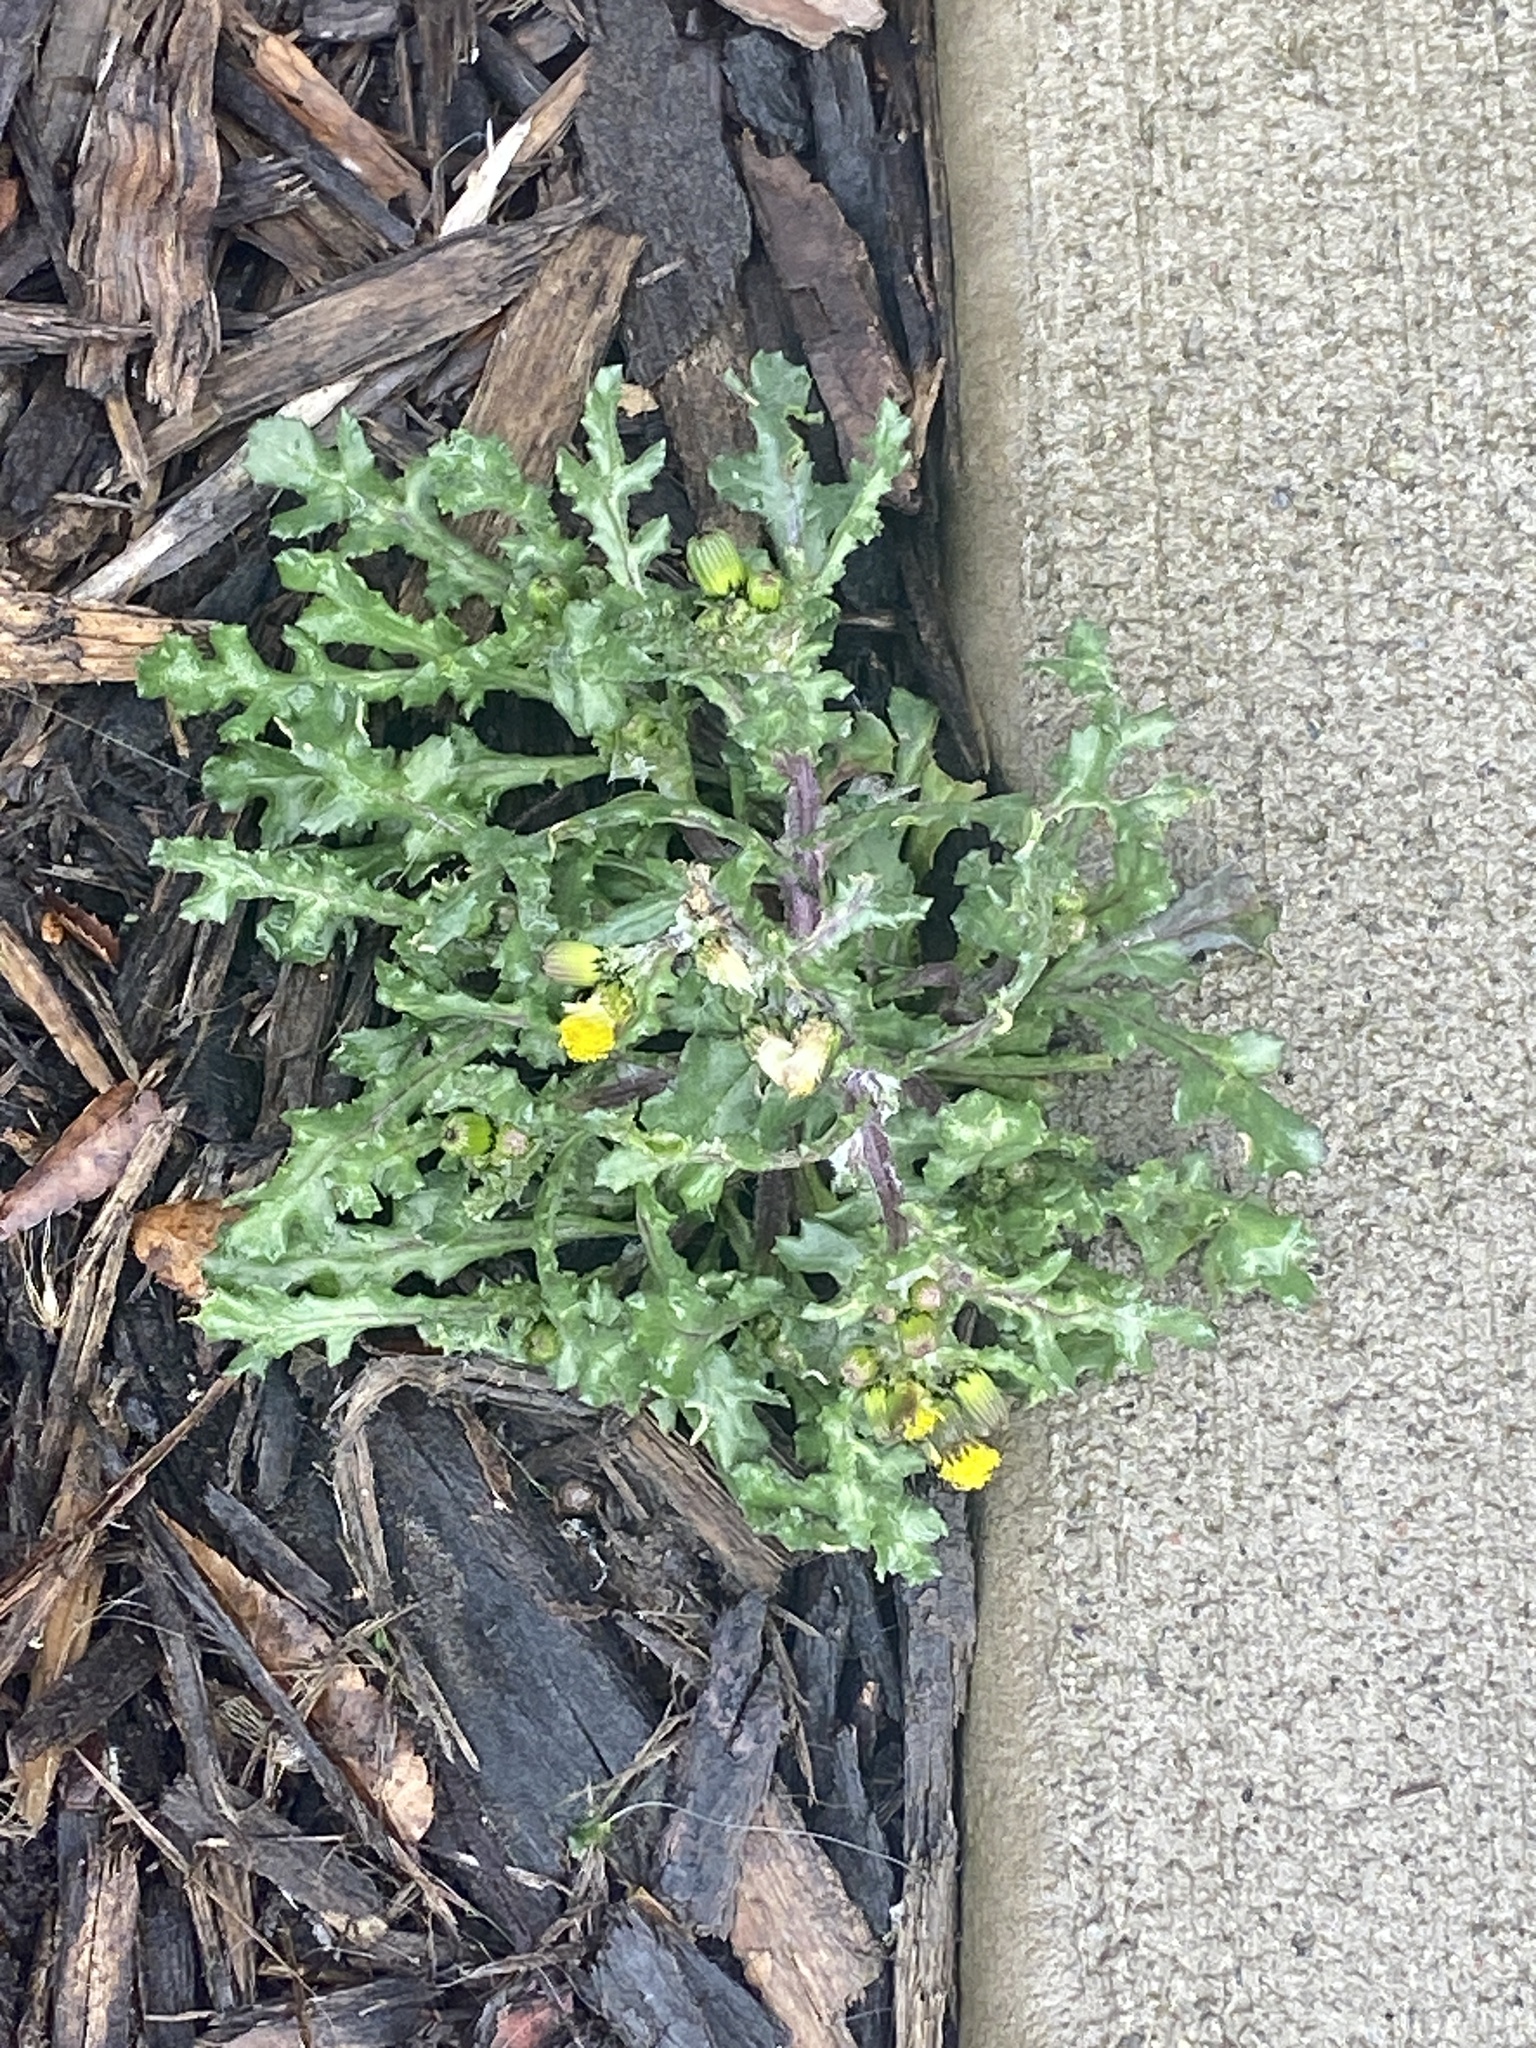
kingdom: Plantae
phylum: Tracheophyta
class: Magnoliopsida
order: Asterales
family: Asteraceae
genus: Senecio
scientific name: Senecio vulgaris
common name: Old-man-in-the-spring
